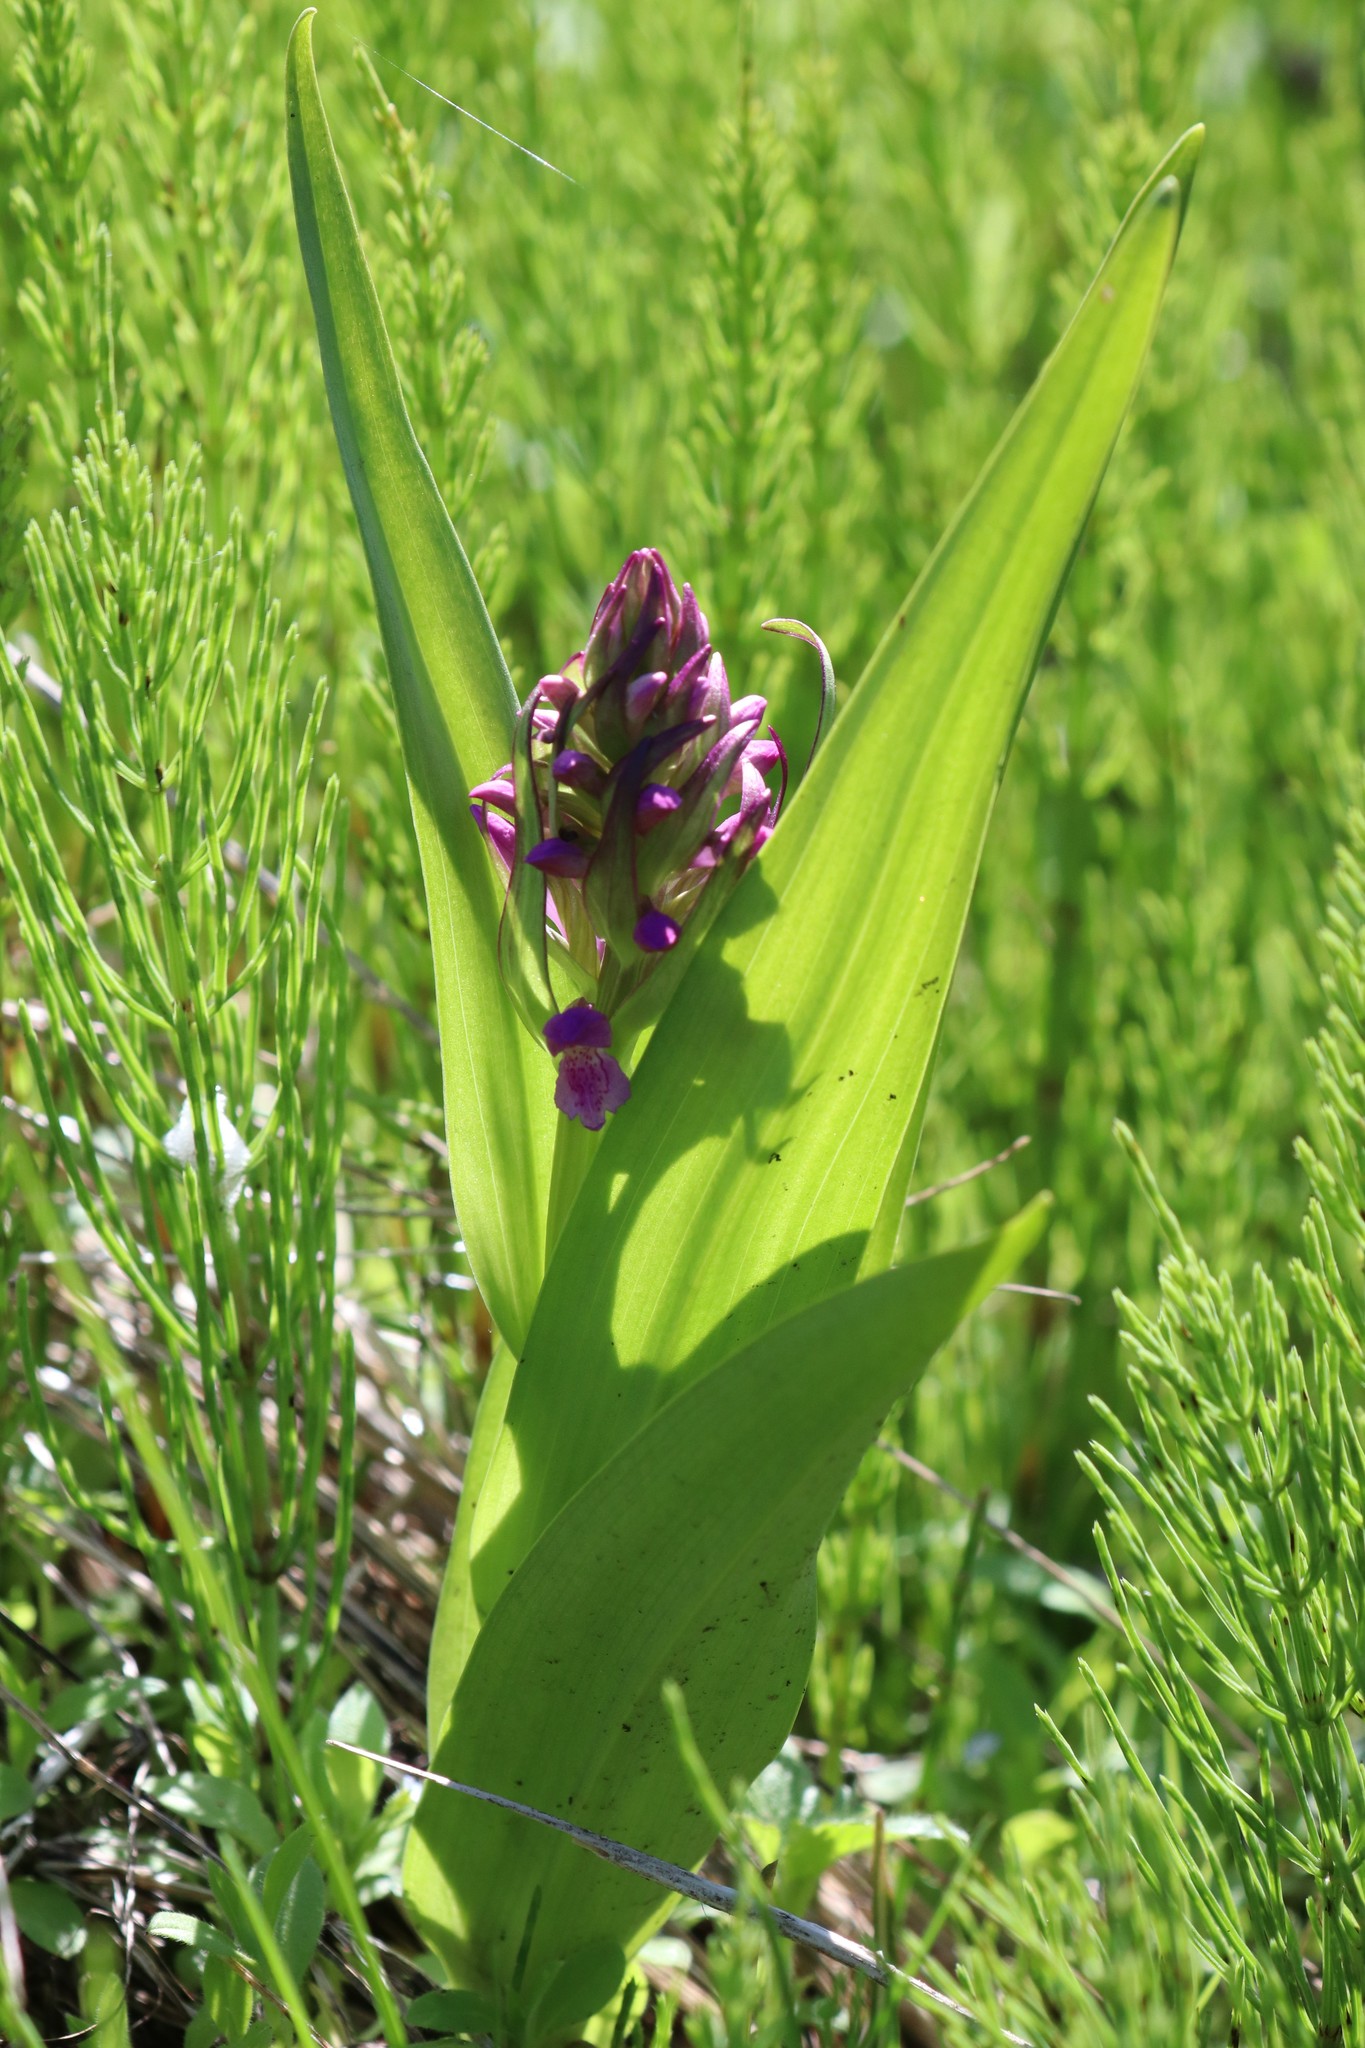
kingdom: Plantae
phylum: Tracheophyta
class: Liliopsida
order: Asparagales
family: Orchidaceae
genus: Dactylorhiza
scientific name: Dactylorhiza incarnata
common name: Early marsh-orchid
